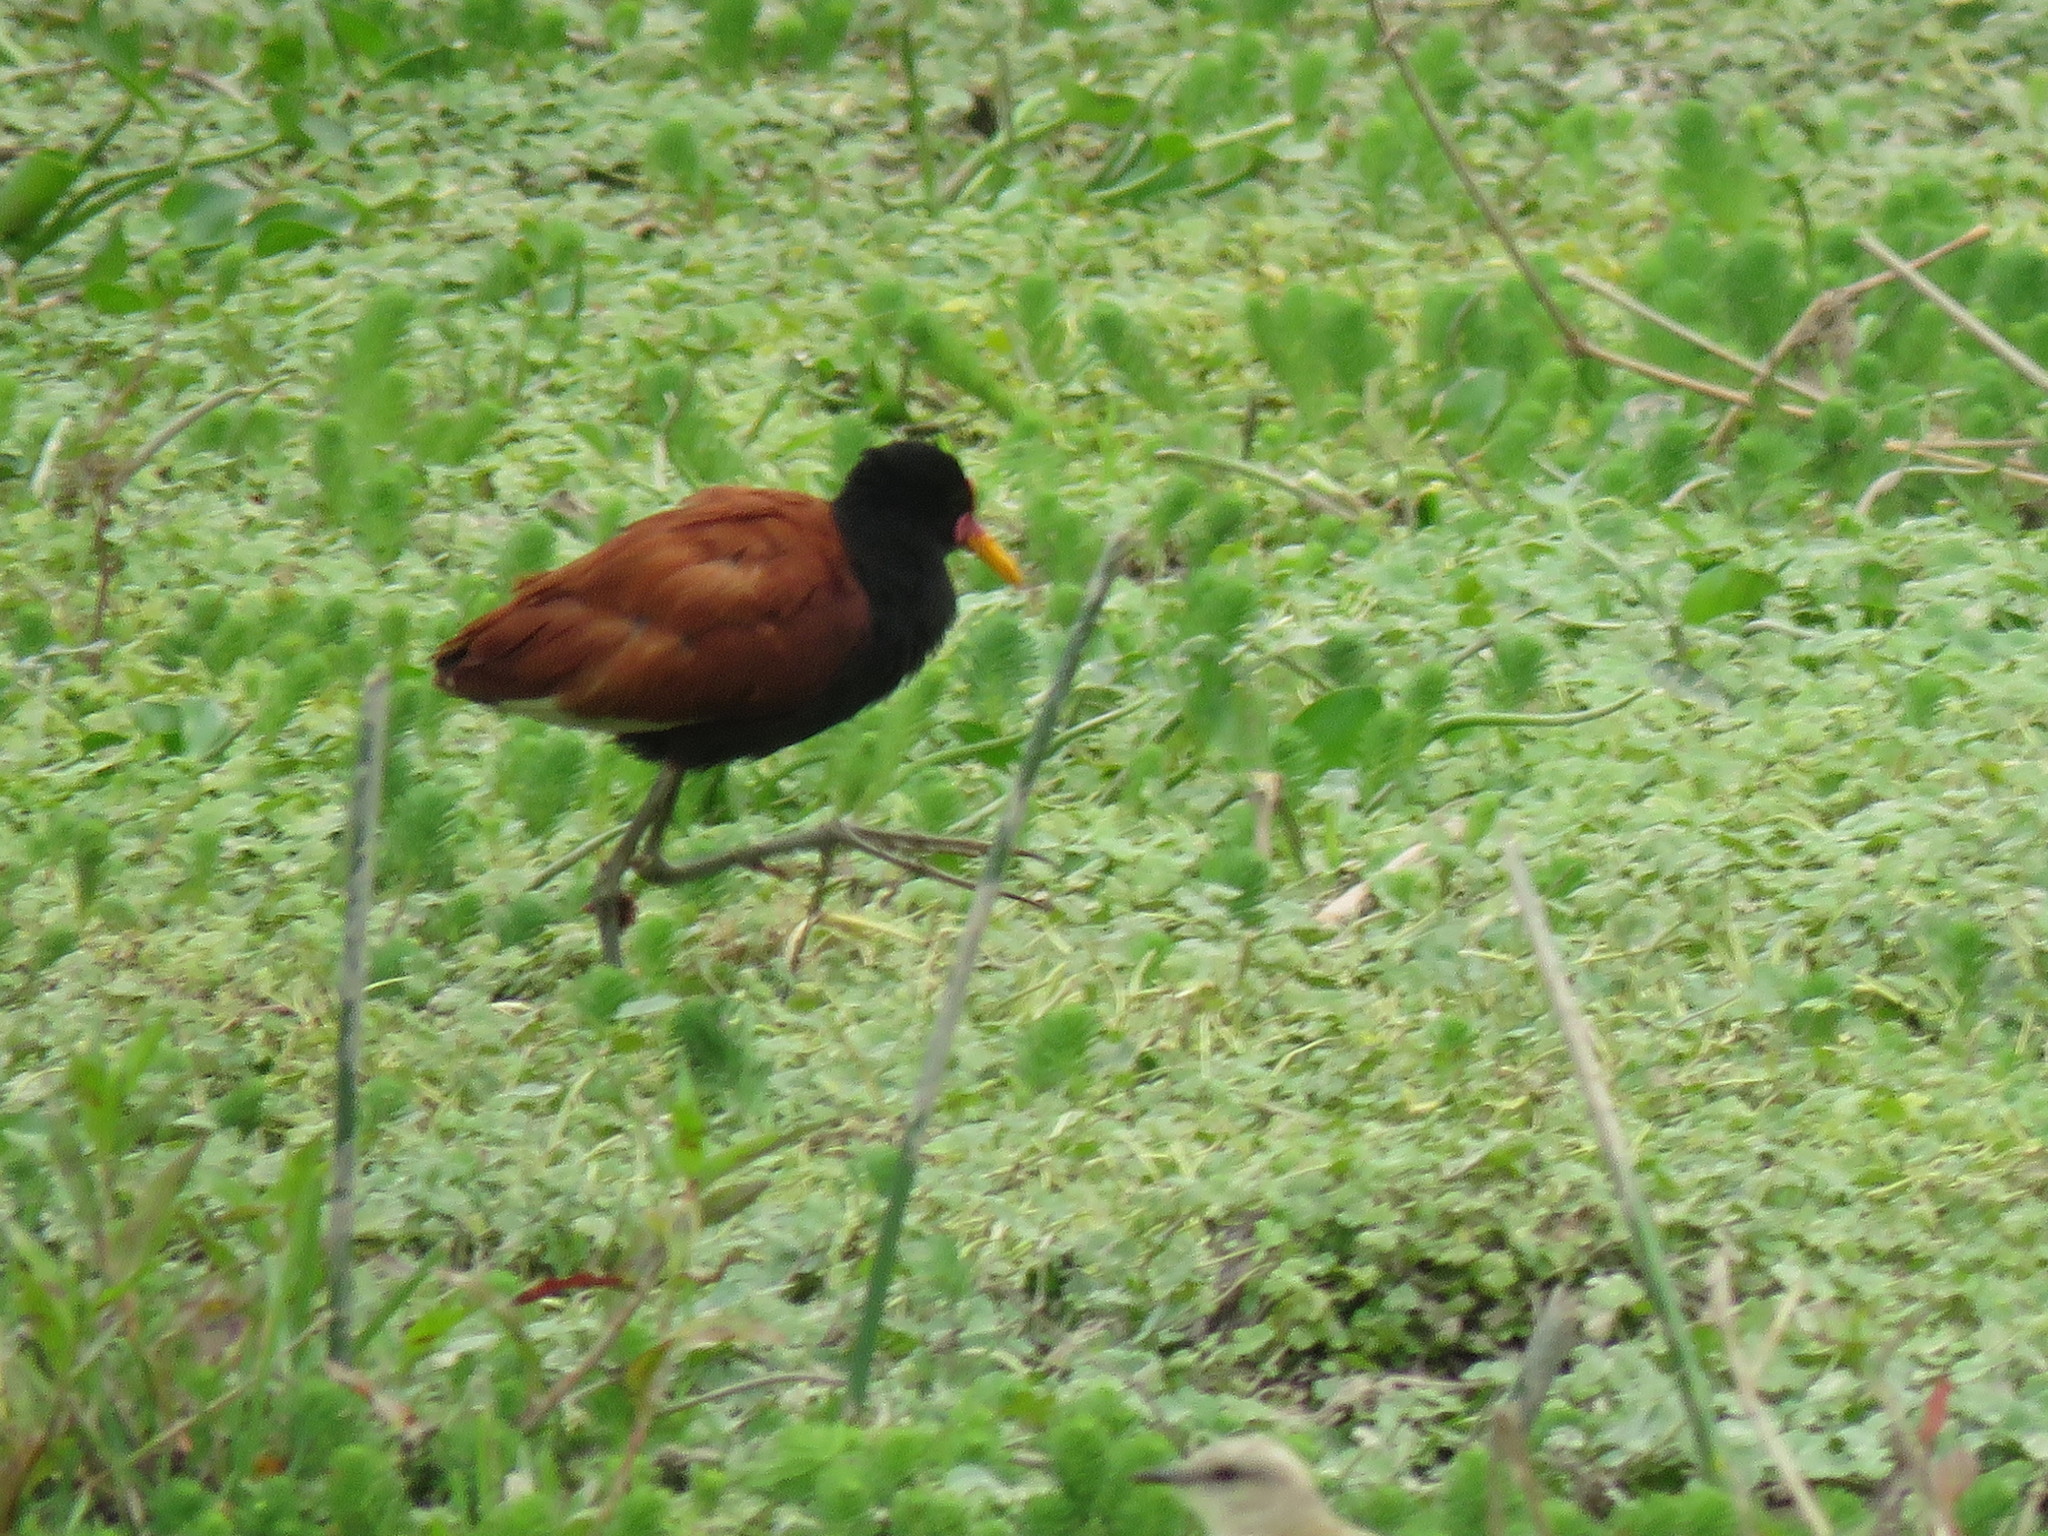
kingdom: Animalia
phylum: Chordata
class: Aves
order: Charadriiformes
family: Jacanidae
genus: Jacana
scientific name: Jacana jacana
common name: Wattled jacana
